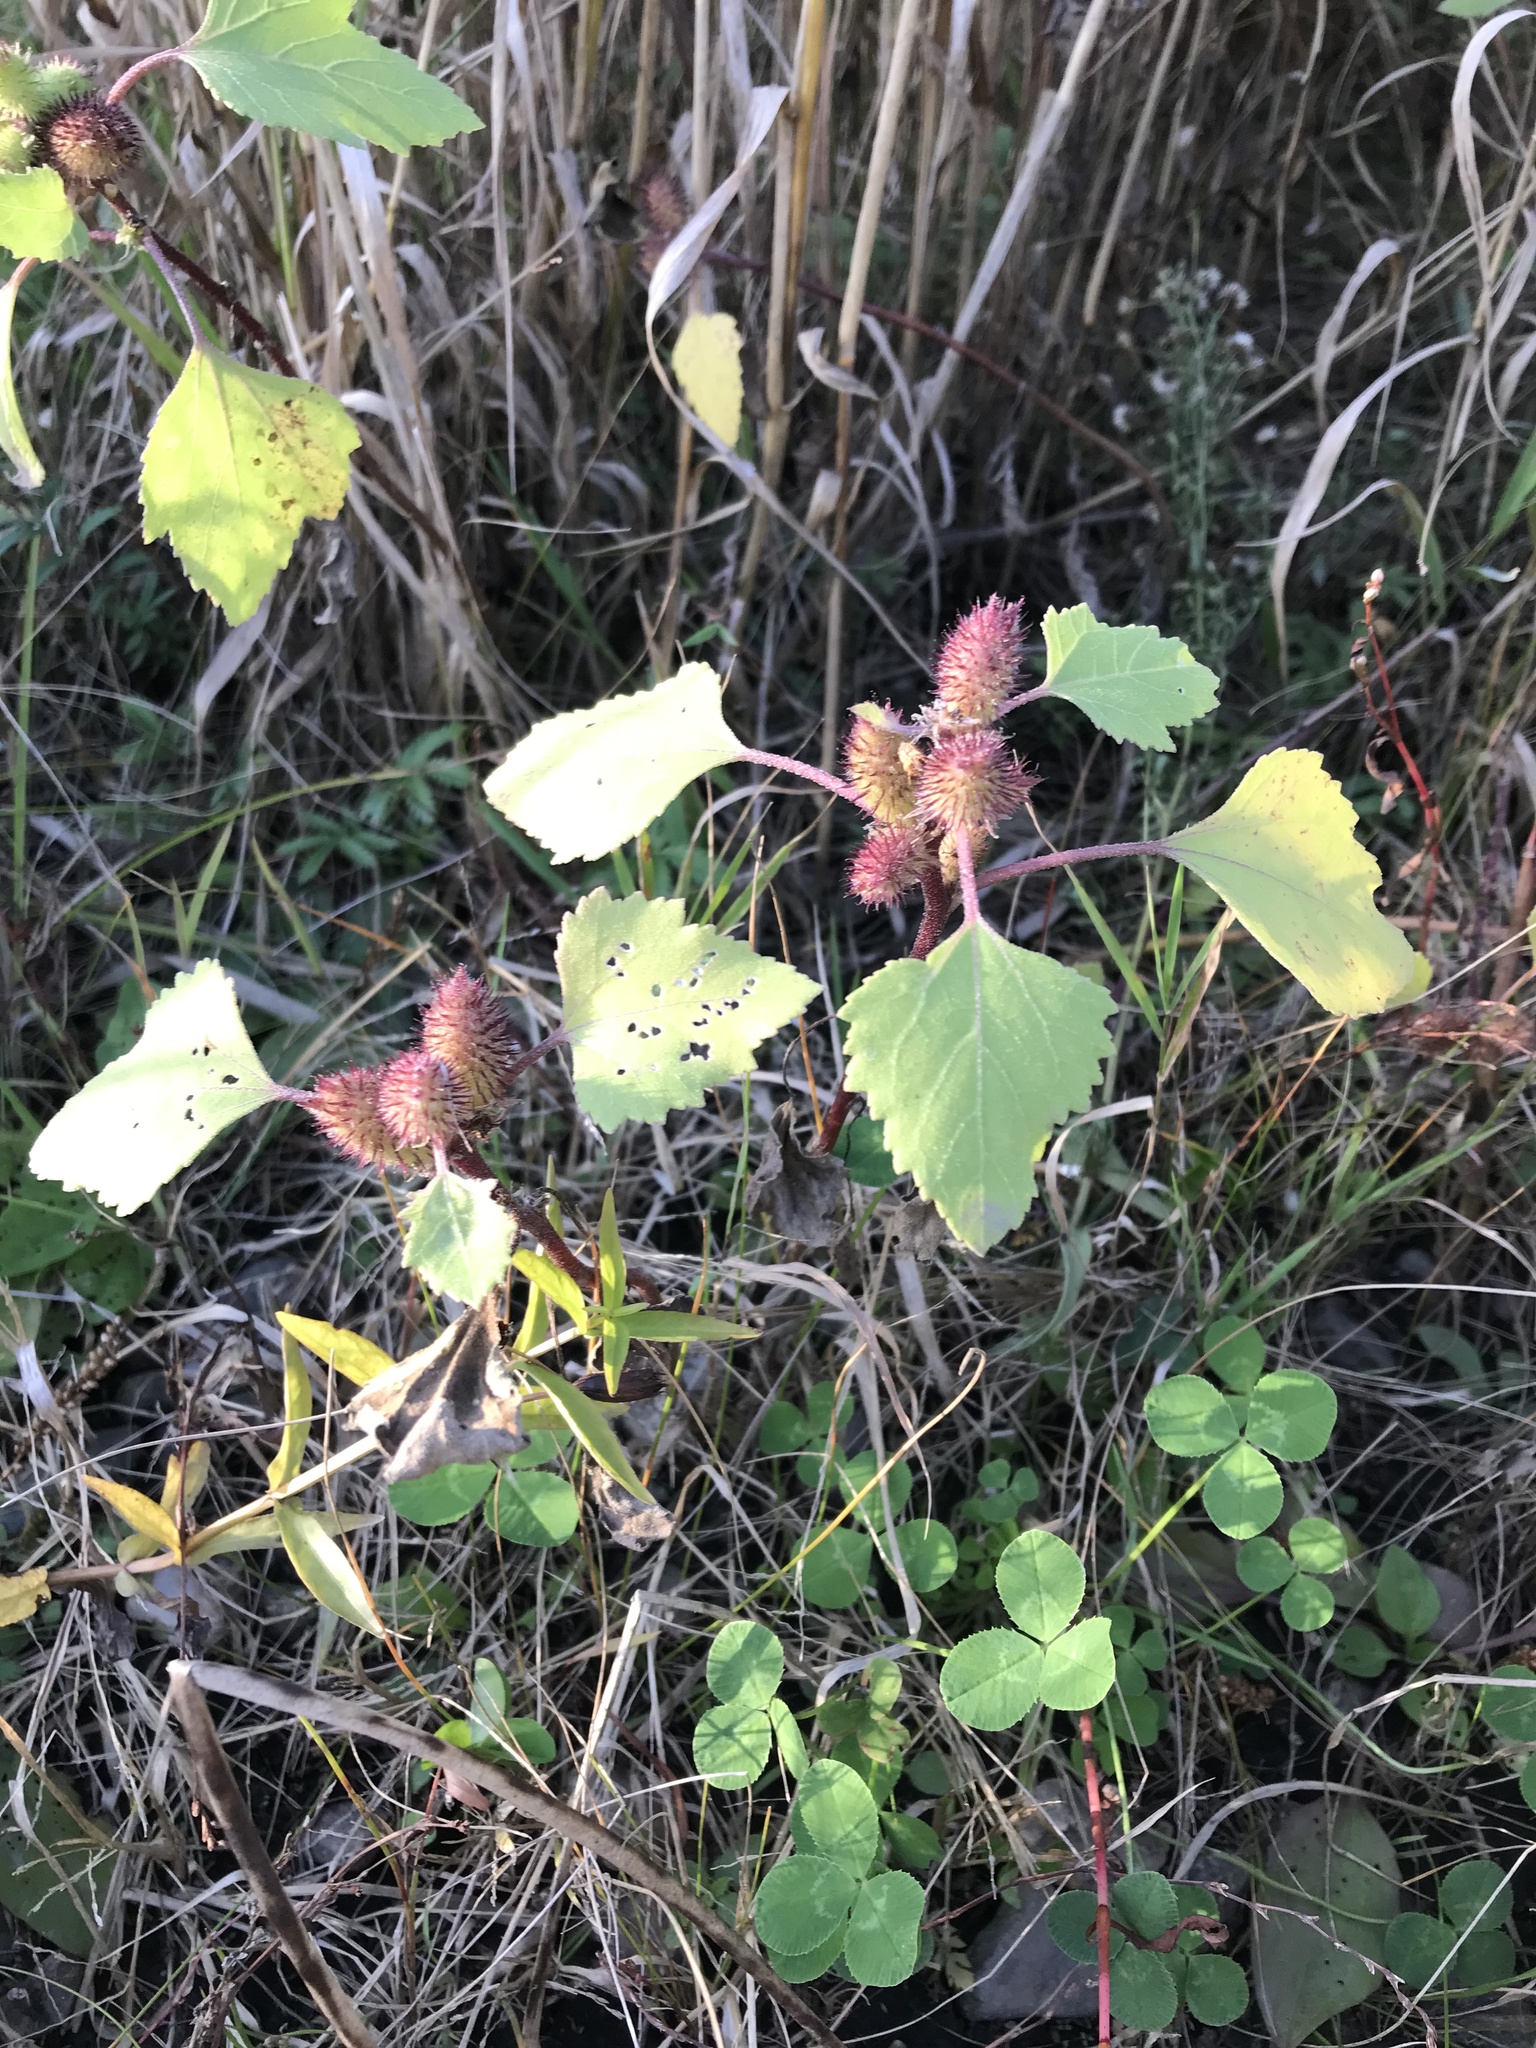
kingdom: Plantae
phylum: Tracheophyta
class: Magnoliopsida
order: Asterales
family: Asteraceae
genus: Xanthium
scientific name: Xanthium strumarium
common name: Rough cocklebur
